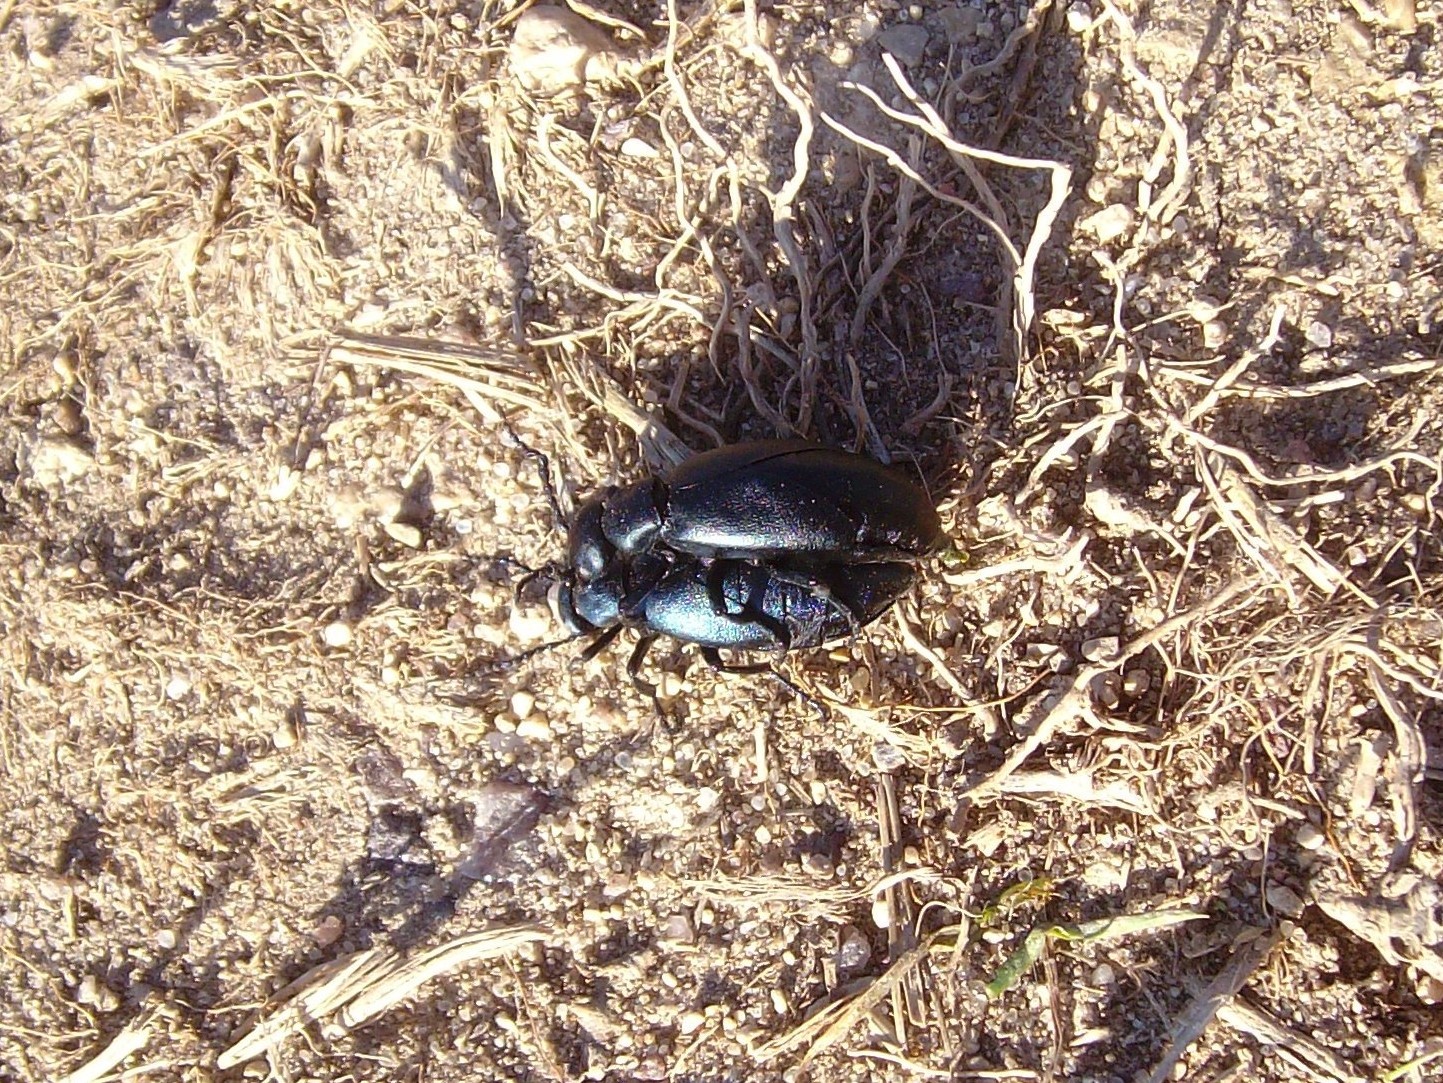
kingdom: Animalia
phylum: Arthropoda
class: Insecta
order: Coleoptera
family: Meloidae
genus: Meloe
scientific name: Meloe campanicollis
